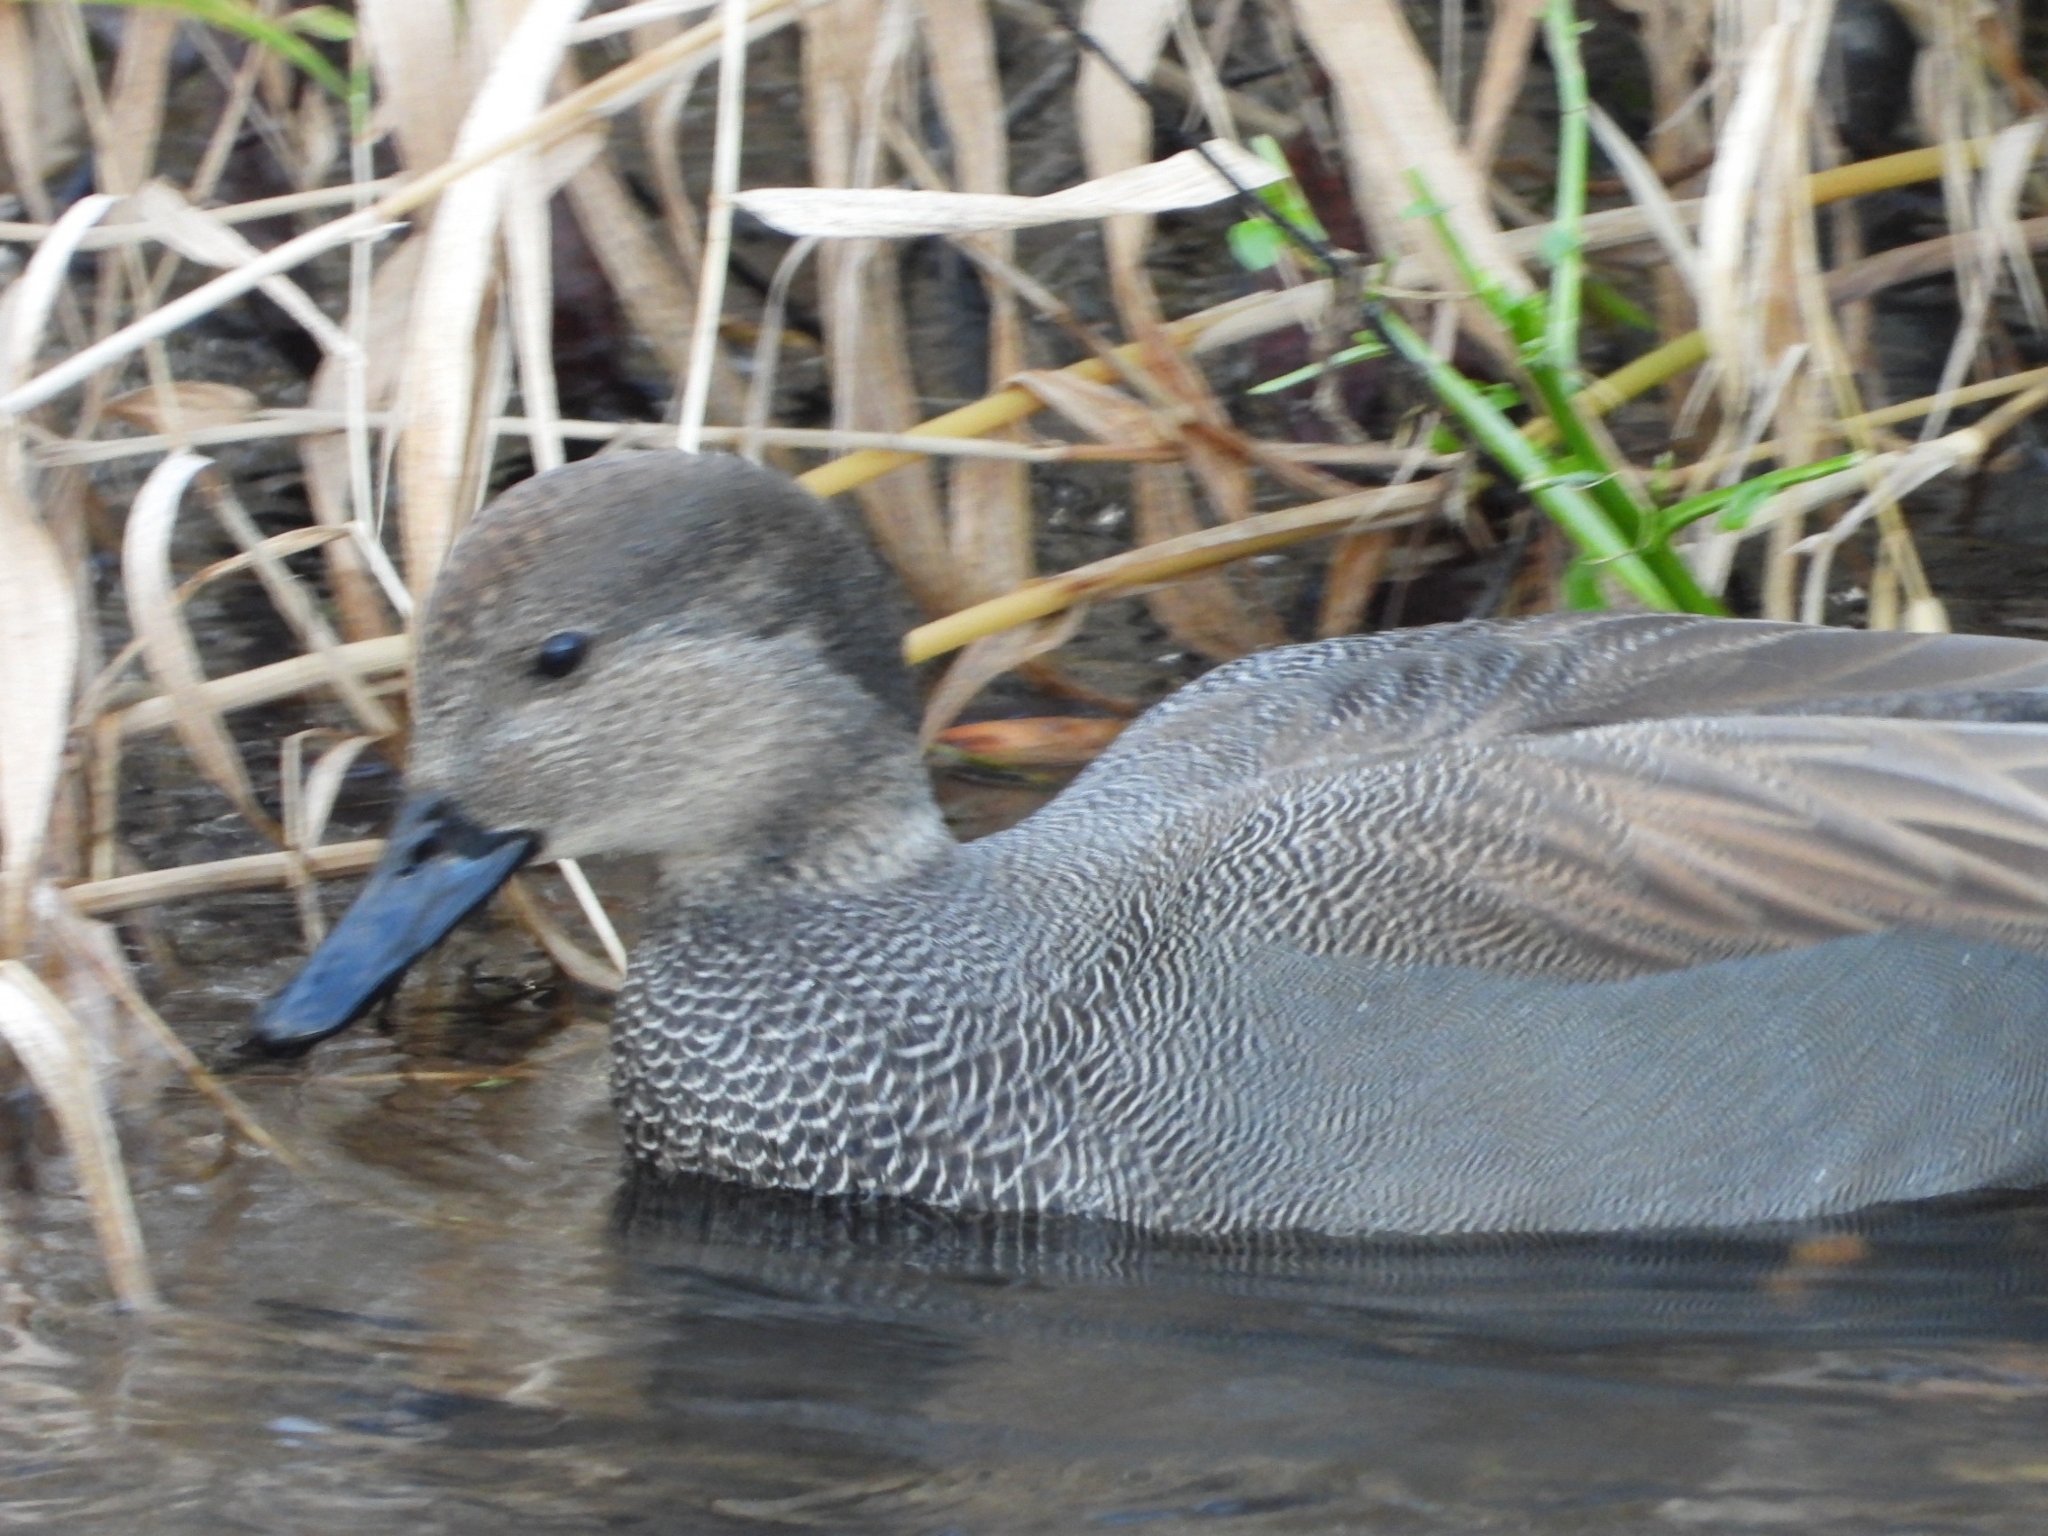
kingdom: Animalia
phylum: Chordata
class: Aves
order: Anseriformes
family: Anatidae
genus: Mareca
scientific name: Mareca strepera
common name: Gadwall
